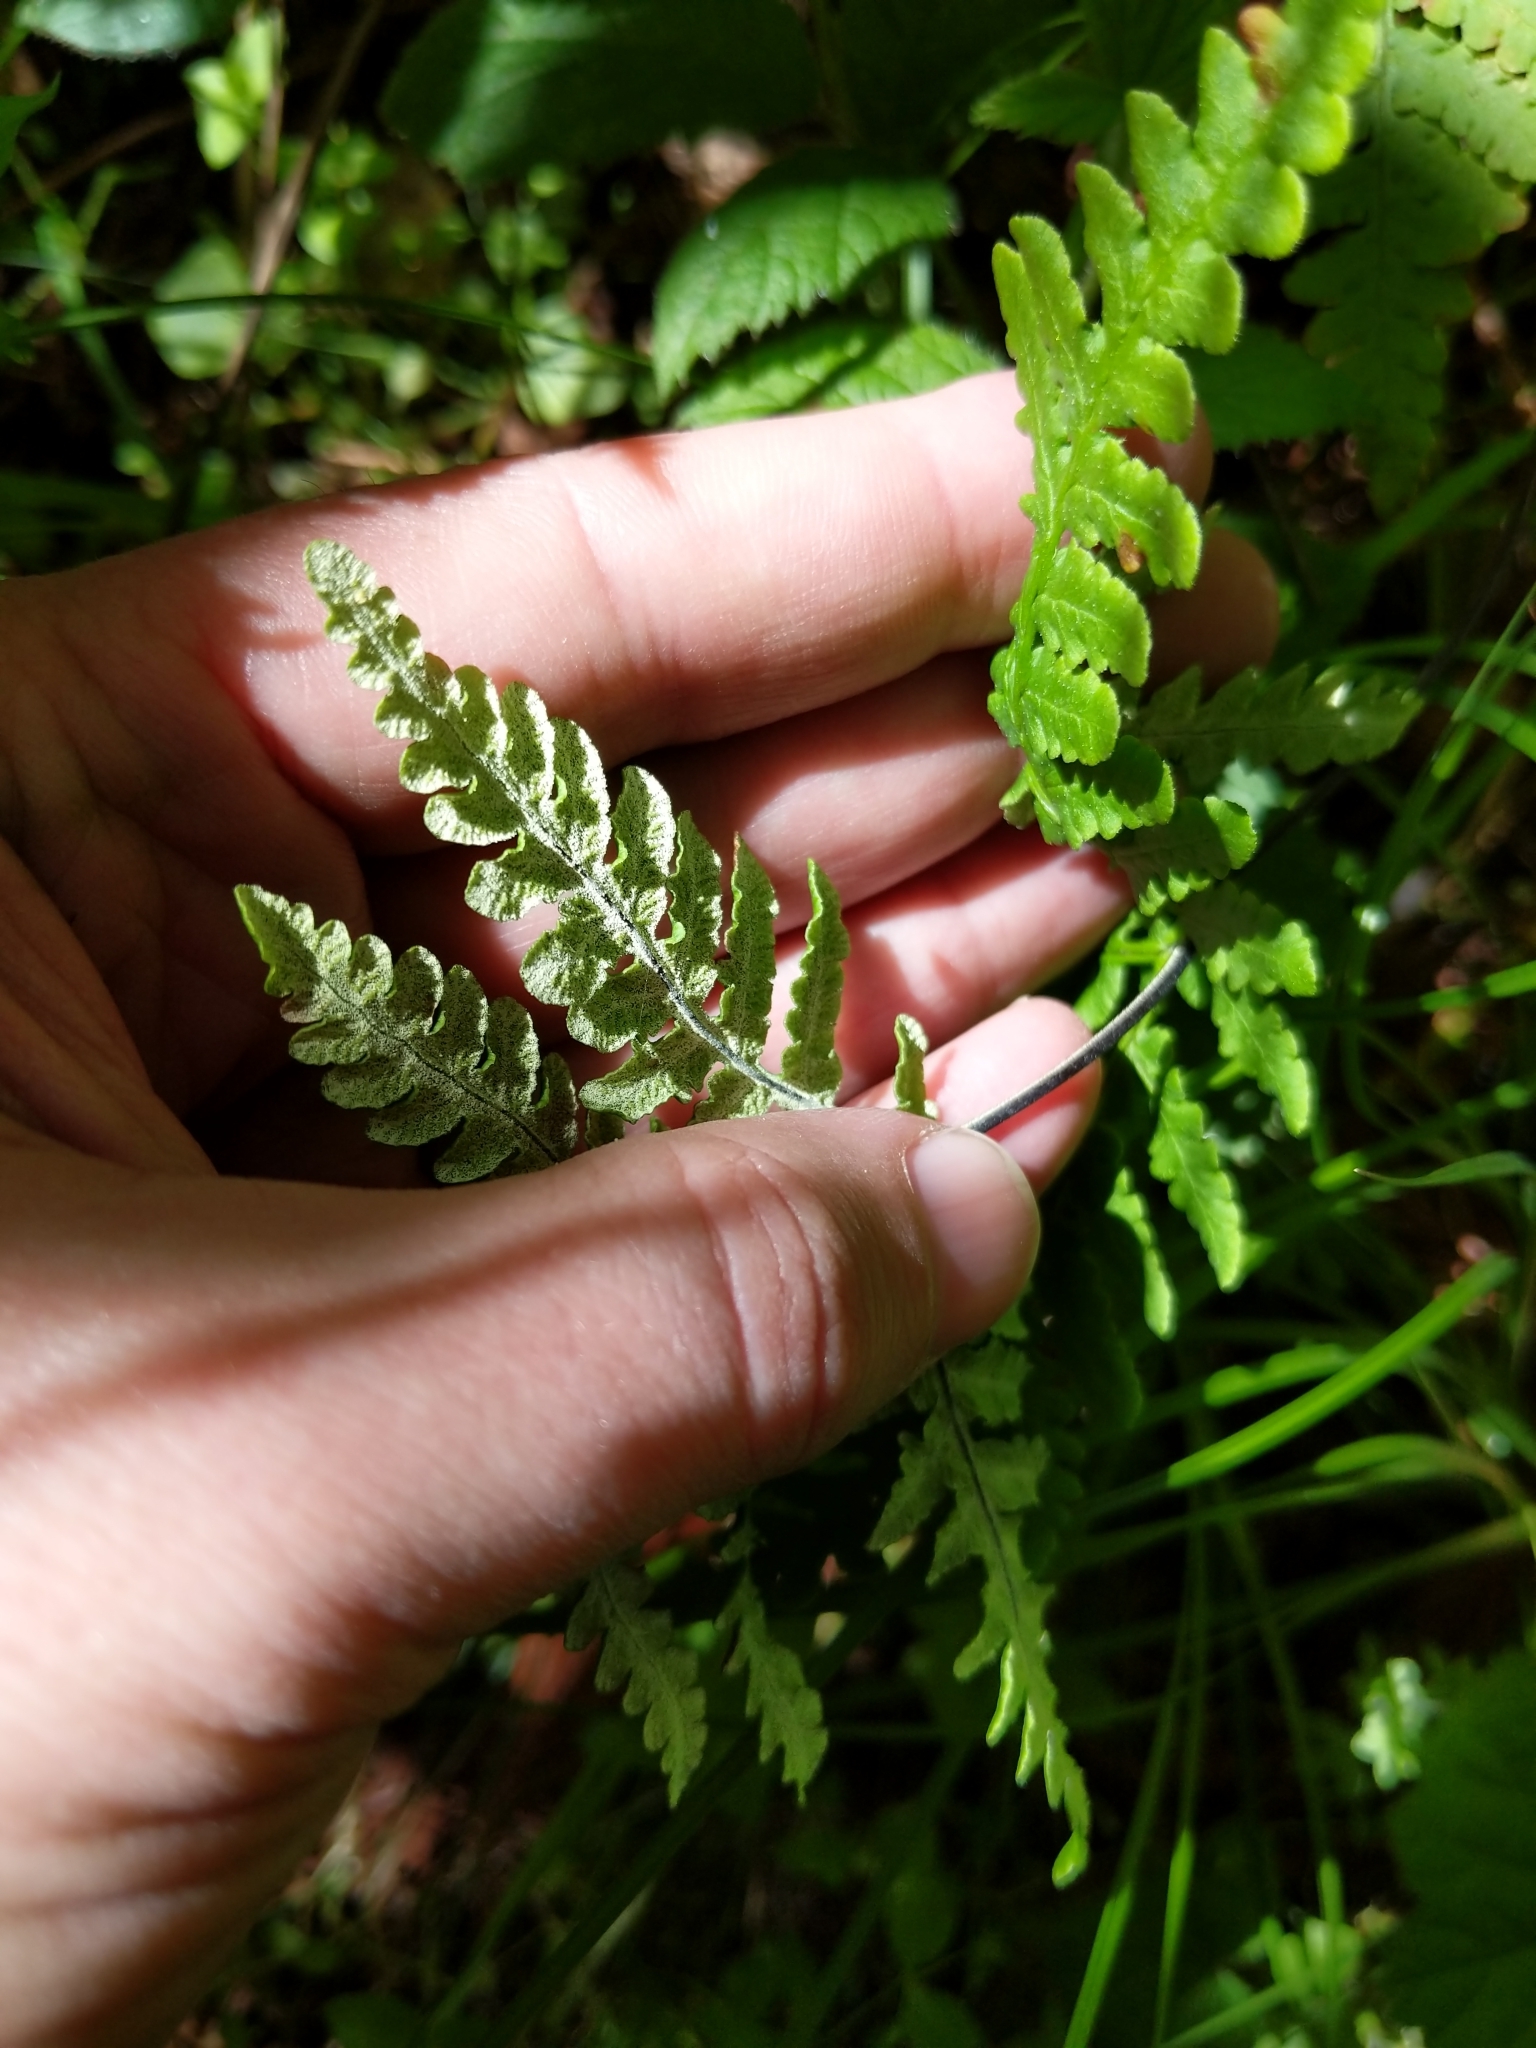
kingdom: Plantae
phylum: Tracheophyta
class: Polypodiopsida
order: Polypodiales
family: Pteridaceae
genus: Pentagramma
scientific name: Pentagramma triangularis
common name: Gold fern
